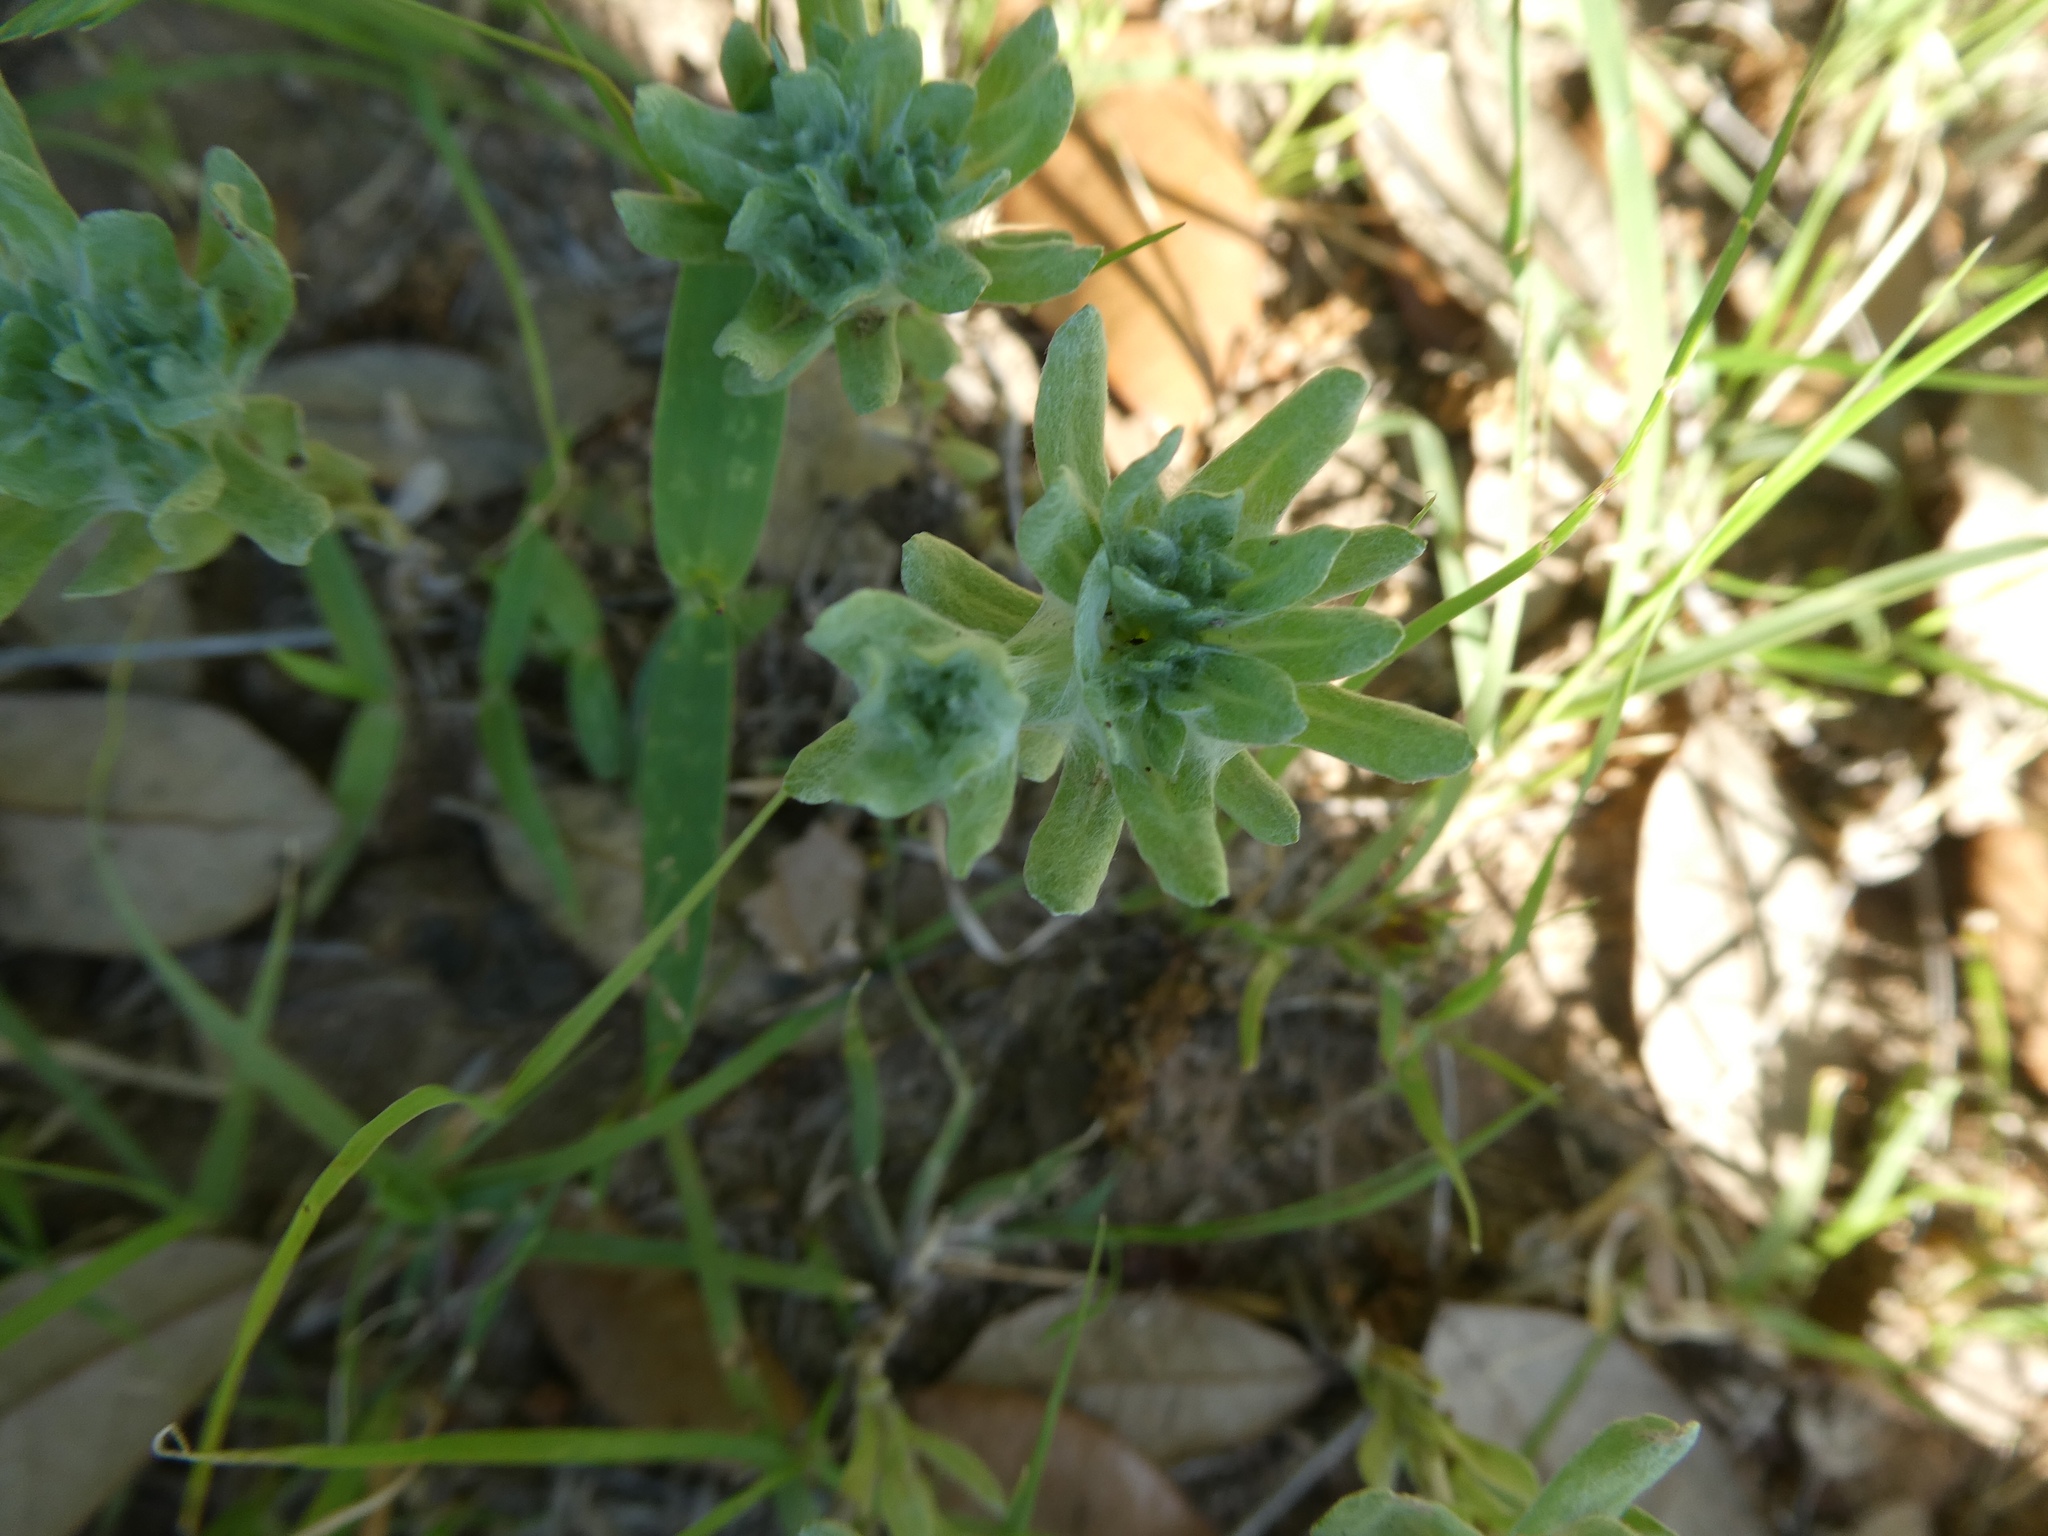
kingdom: Plantae
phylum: Tracheophyta
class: Magnoliopsida
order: Asterales
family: Asteraceae
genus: Diaperia
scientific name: Diaperia prolifera
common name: Big-head rabbit-tobacco
